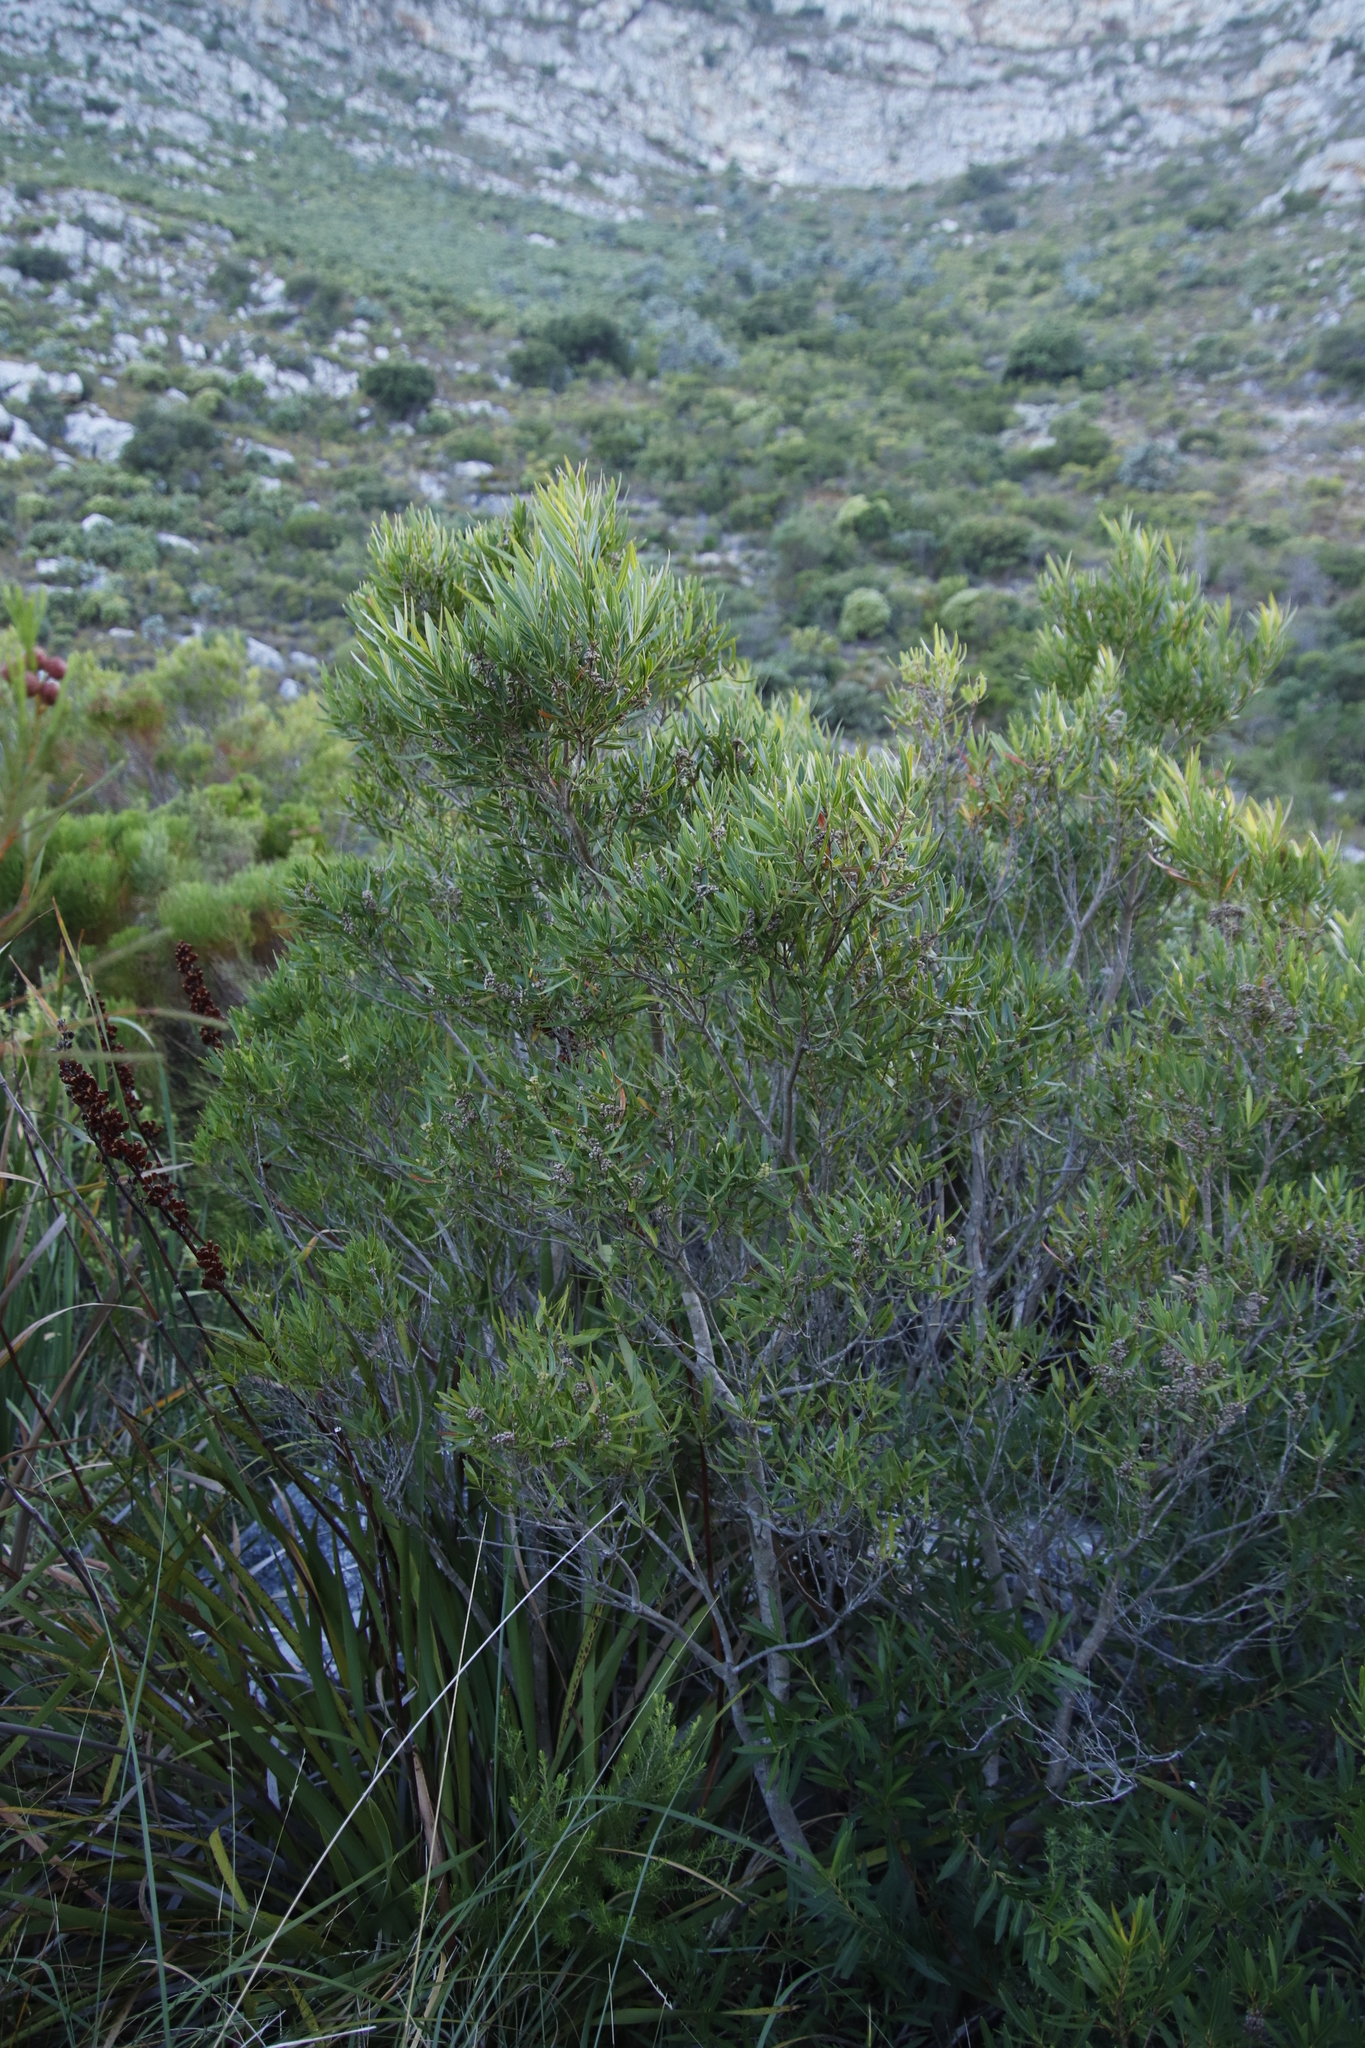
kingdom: Plantae
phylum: Tracheophyta
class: Magnoliopsida
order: Myrtales
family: Myrtaceae
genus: Callistemon
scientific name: Callistemon lanceolatus
